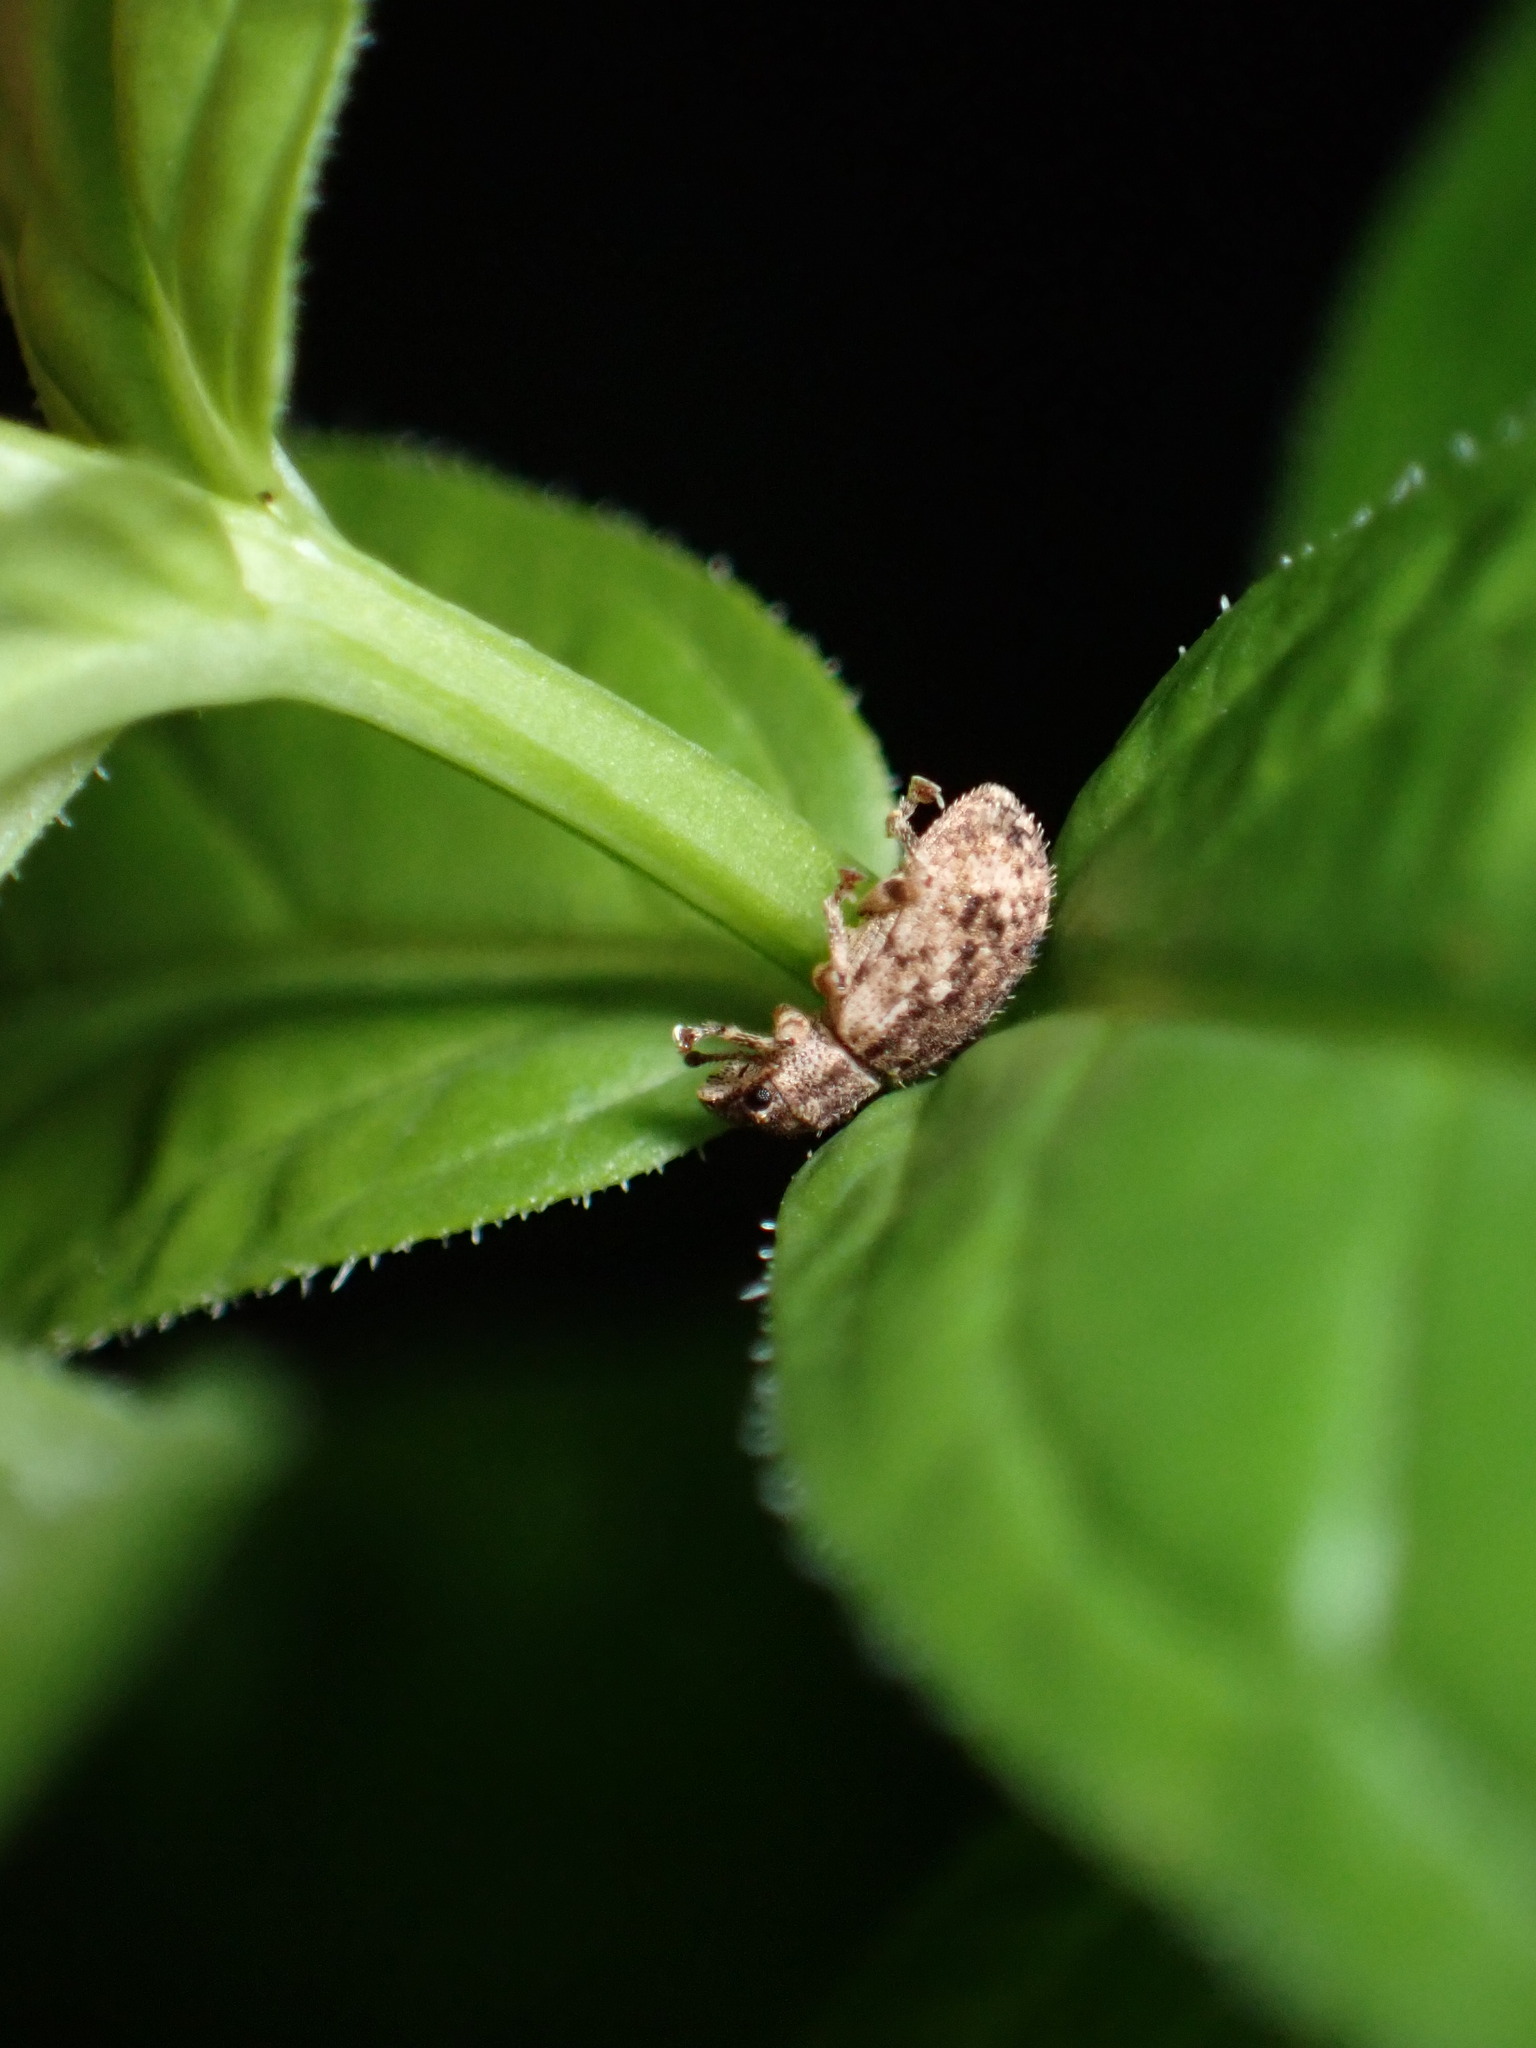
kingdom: Animalia
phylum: Arthropoda
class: Insecta
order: Coleoptera
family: Curculionidae
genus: Pseudoedophrys
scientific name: Pseudoedophrys hilleri
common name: Weevil
